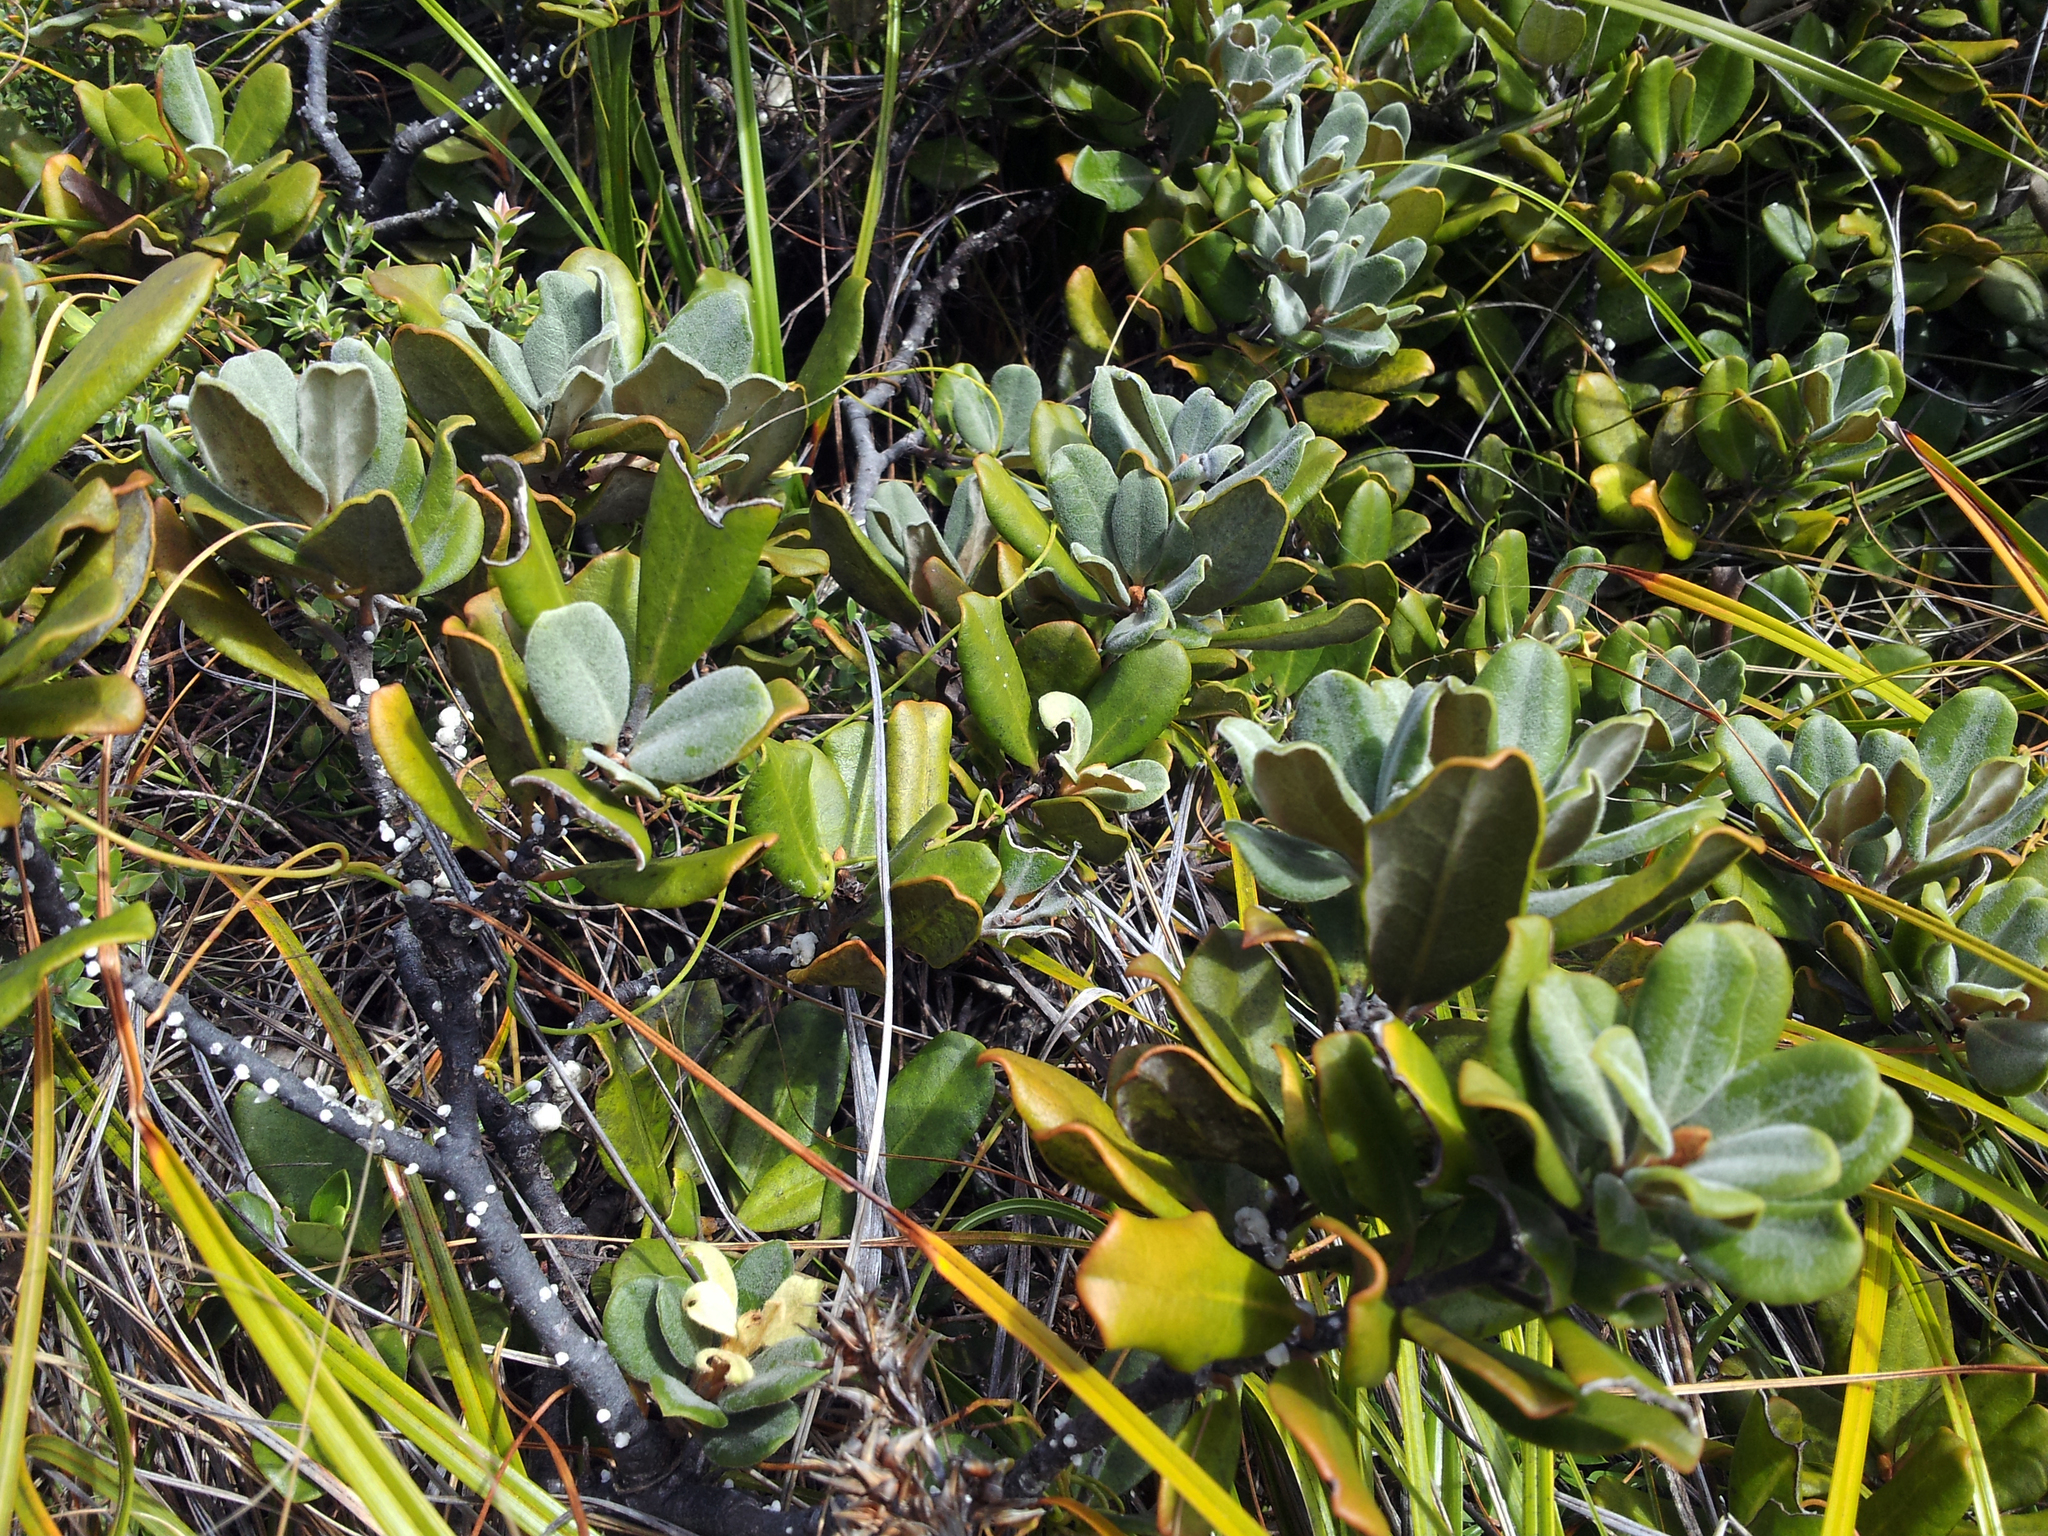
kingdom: Plantae
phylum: Tracheophyta
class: Magnoliopsida
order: Apiales
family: Pittosporaceae
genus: Pittosporum
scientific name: Pittosporum serpentinum
